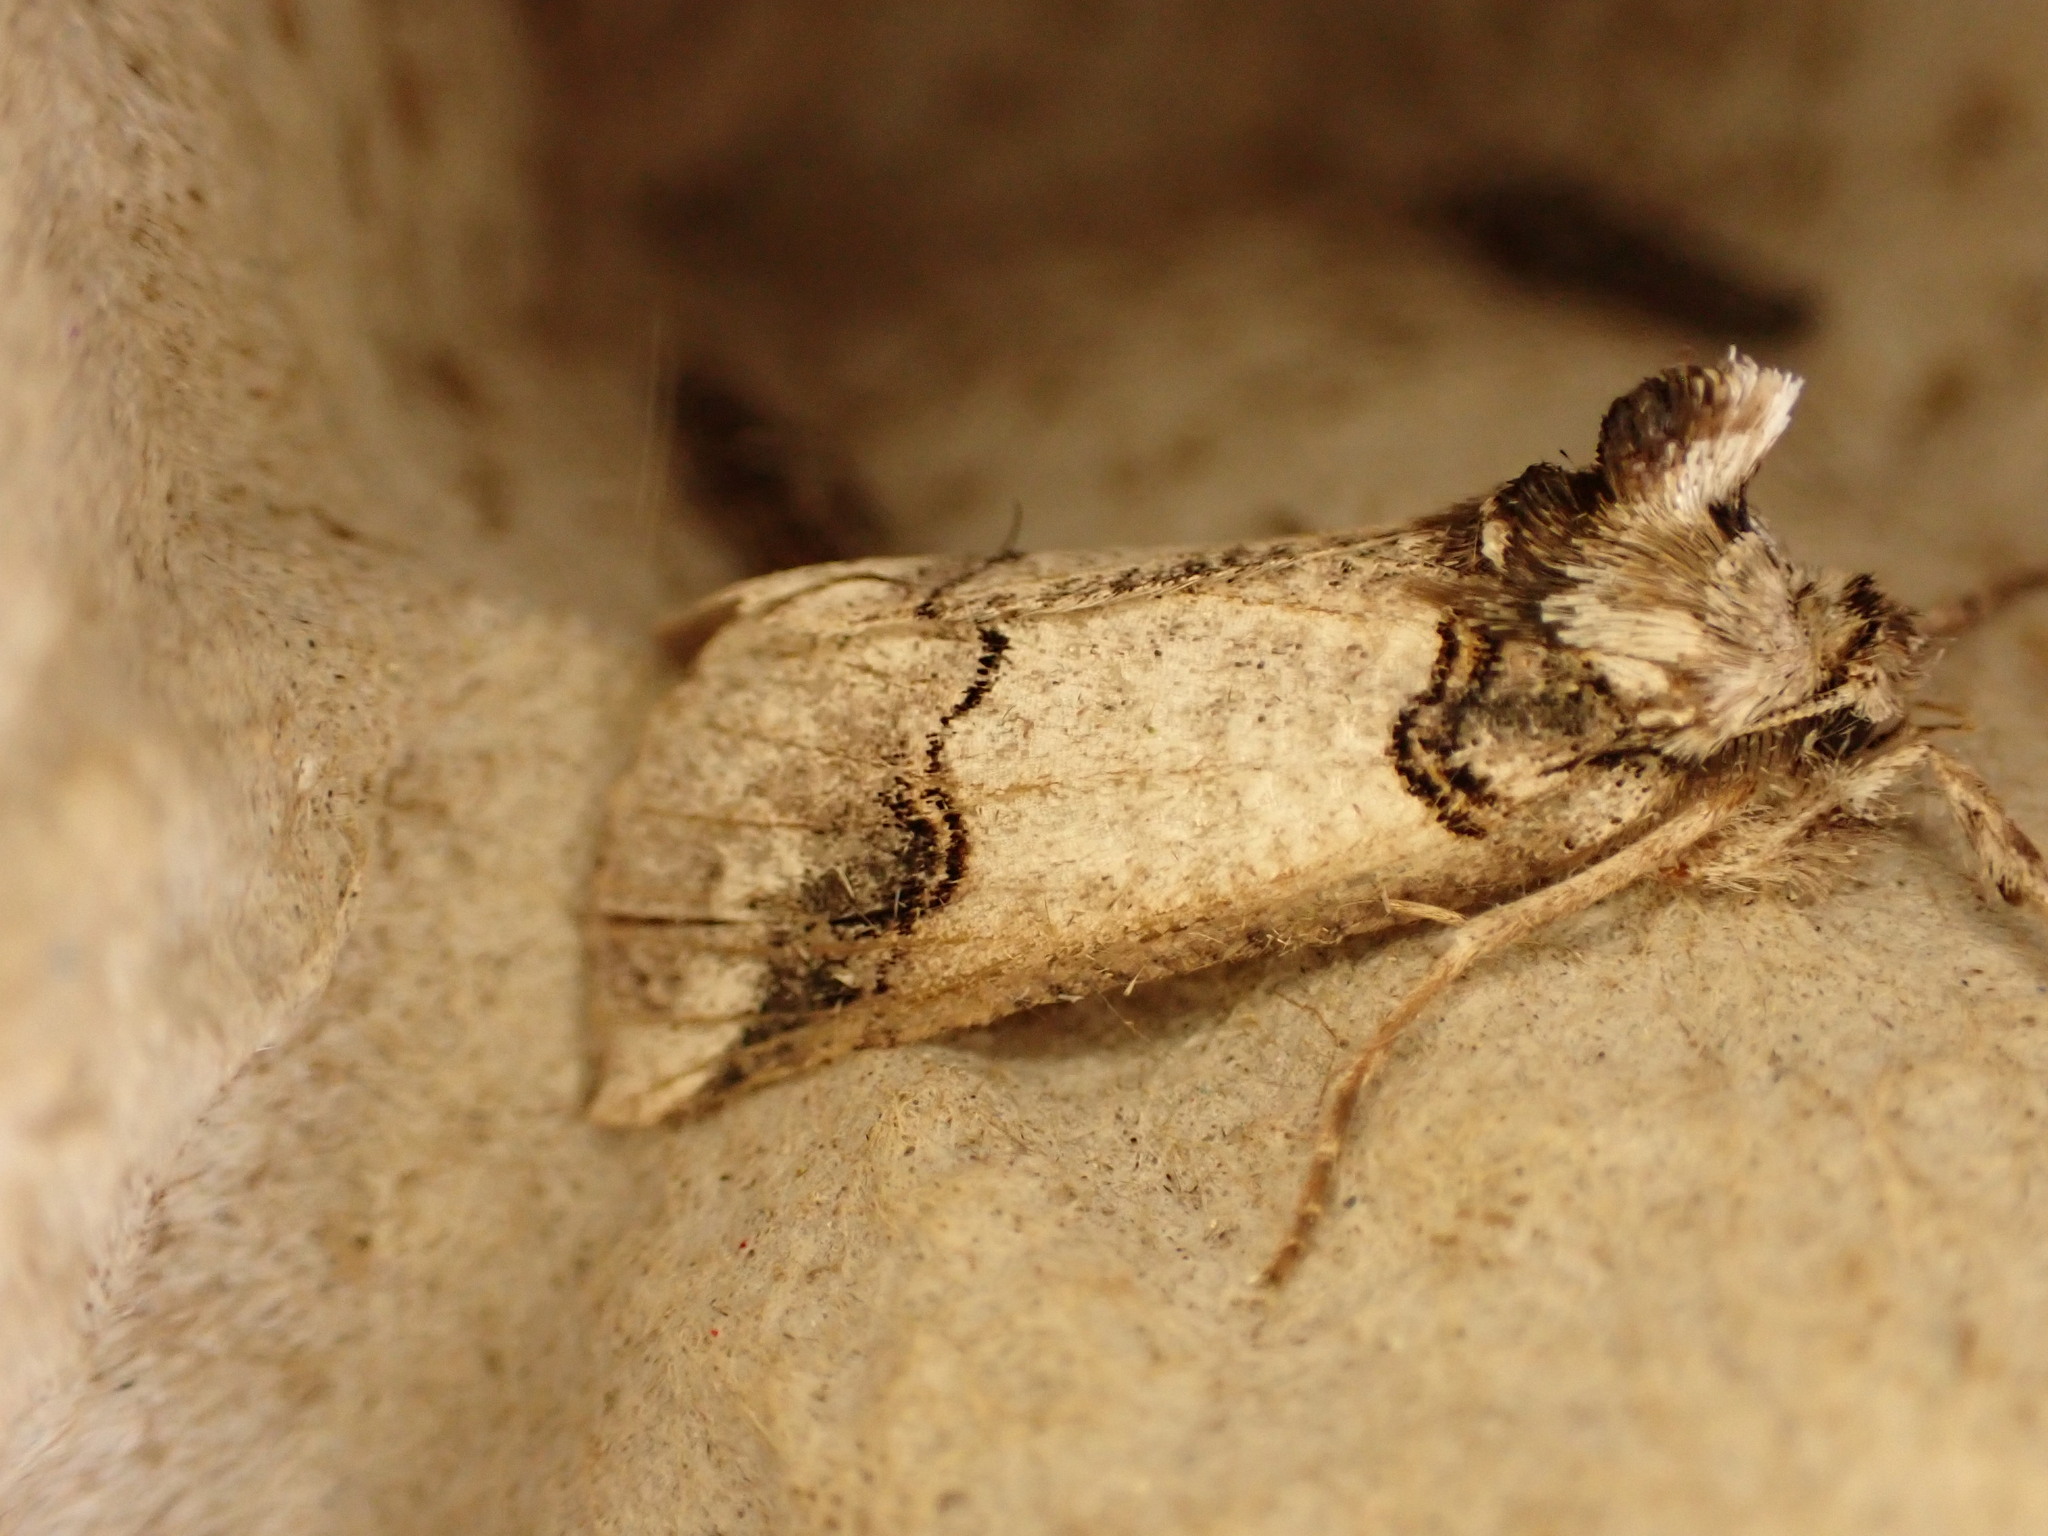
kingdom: Animalia
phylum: Arthropoda
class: Insecta
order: Lepidoptera
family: Geometridae
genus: Declana
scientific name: Declana
